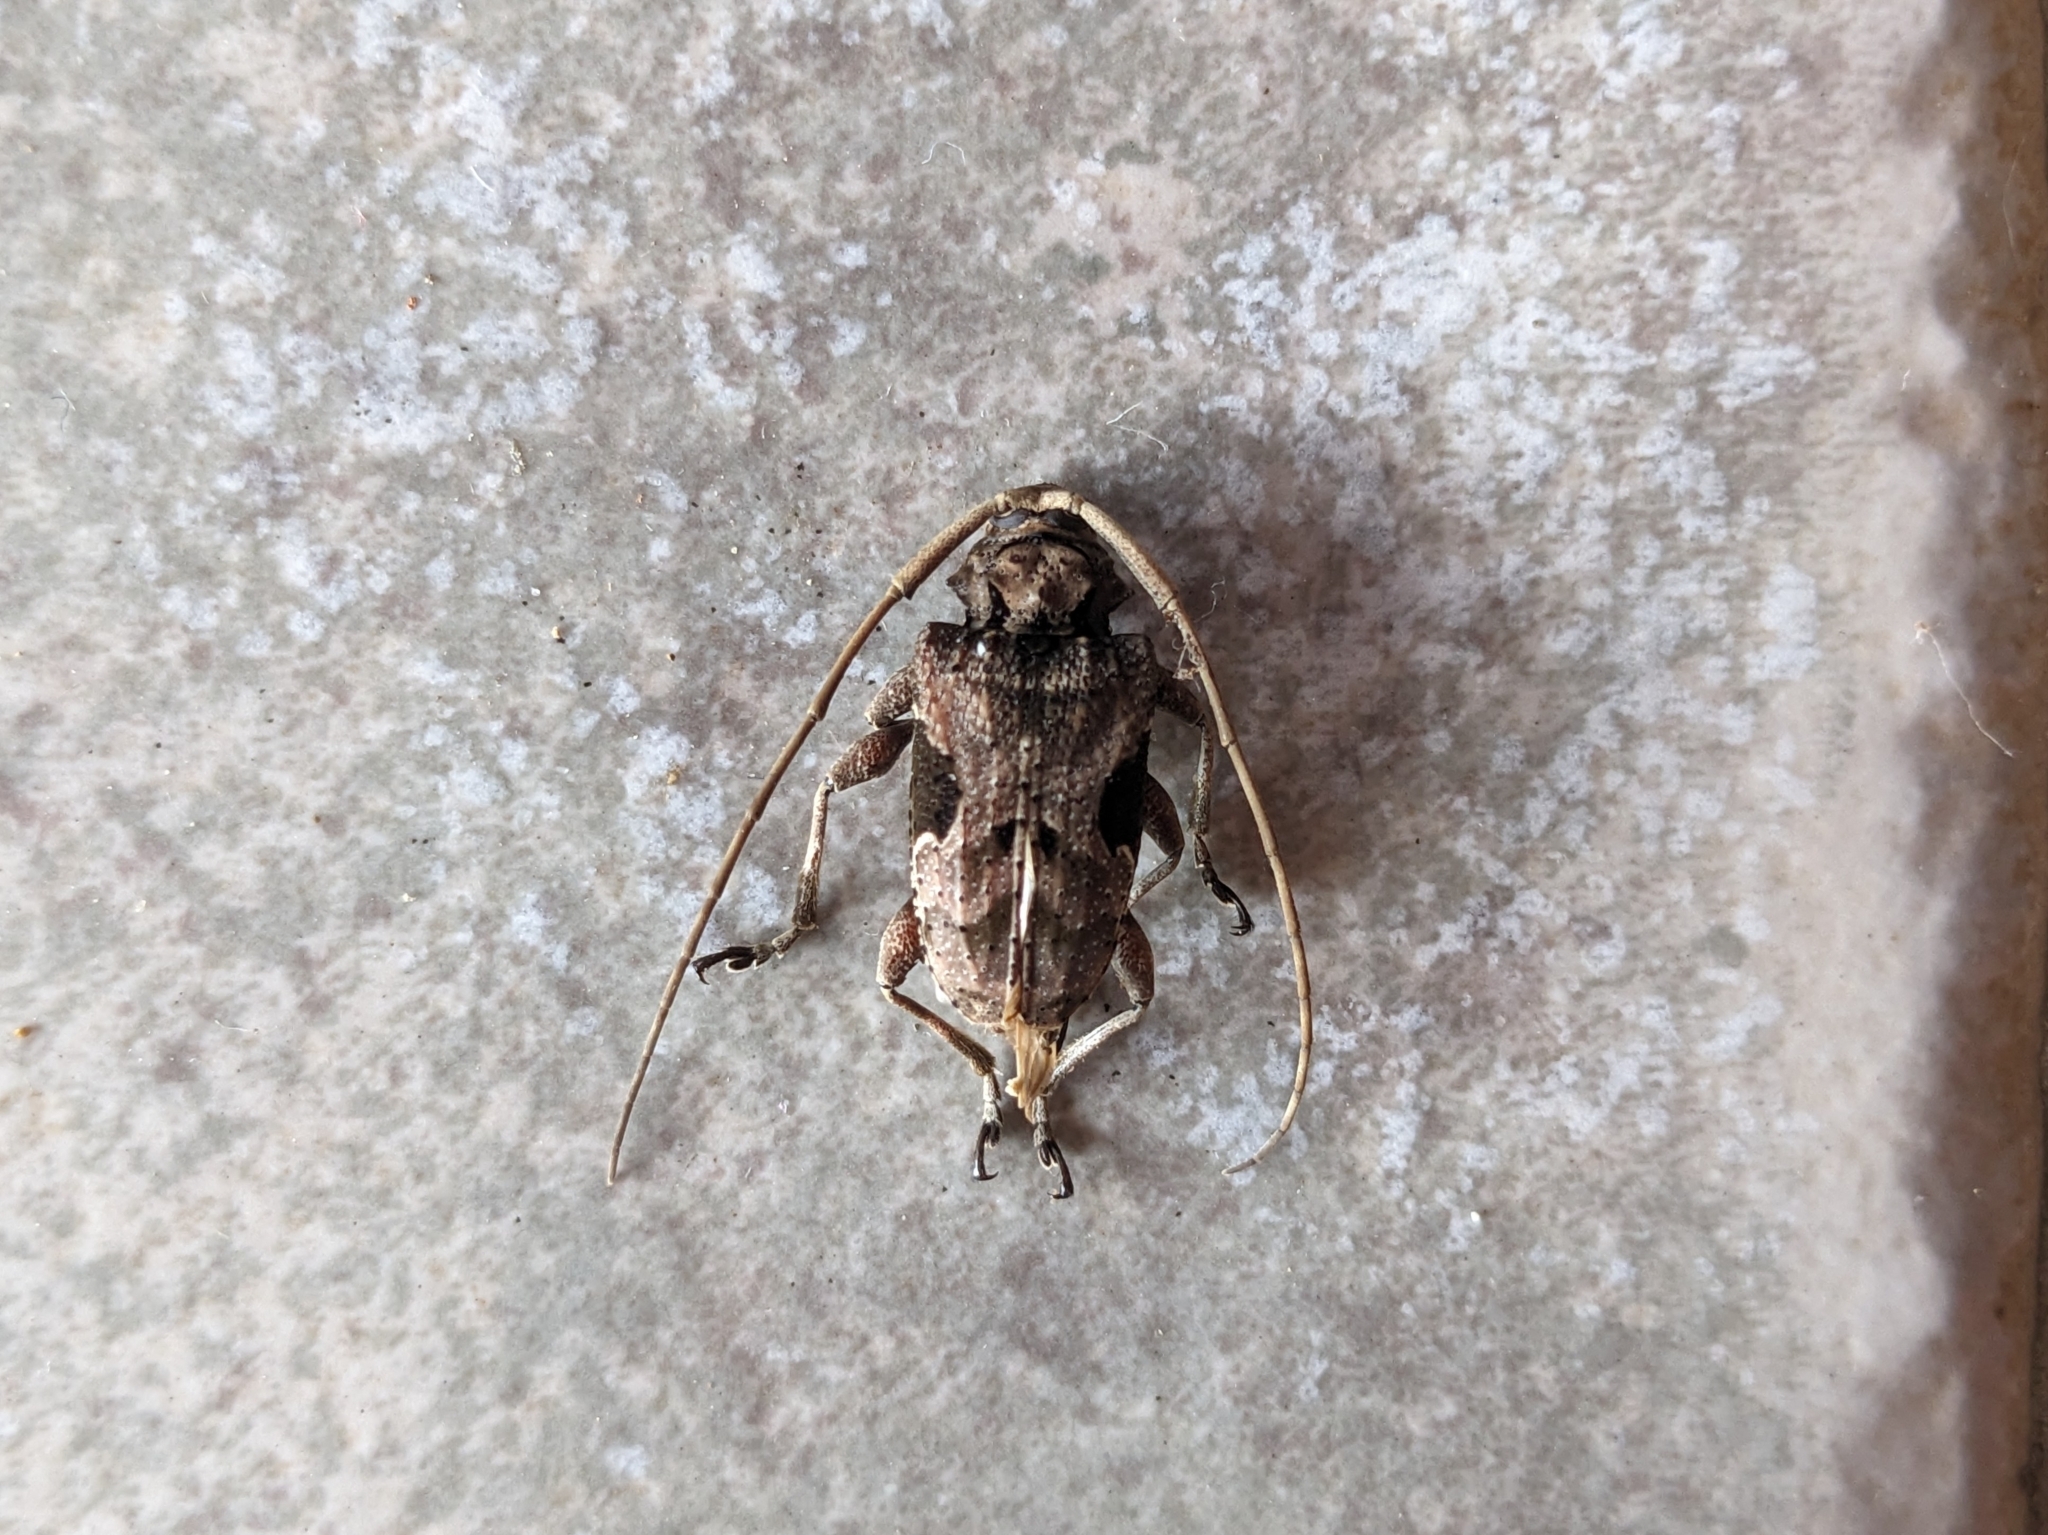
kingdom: Animalia
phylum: Arthropoda
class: Insecta
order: Coleoptera
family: Cerambycidae
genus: Lagocheirus
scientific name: Lagocheirus araneiformis
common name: Beetle
